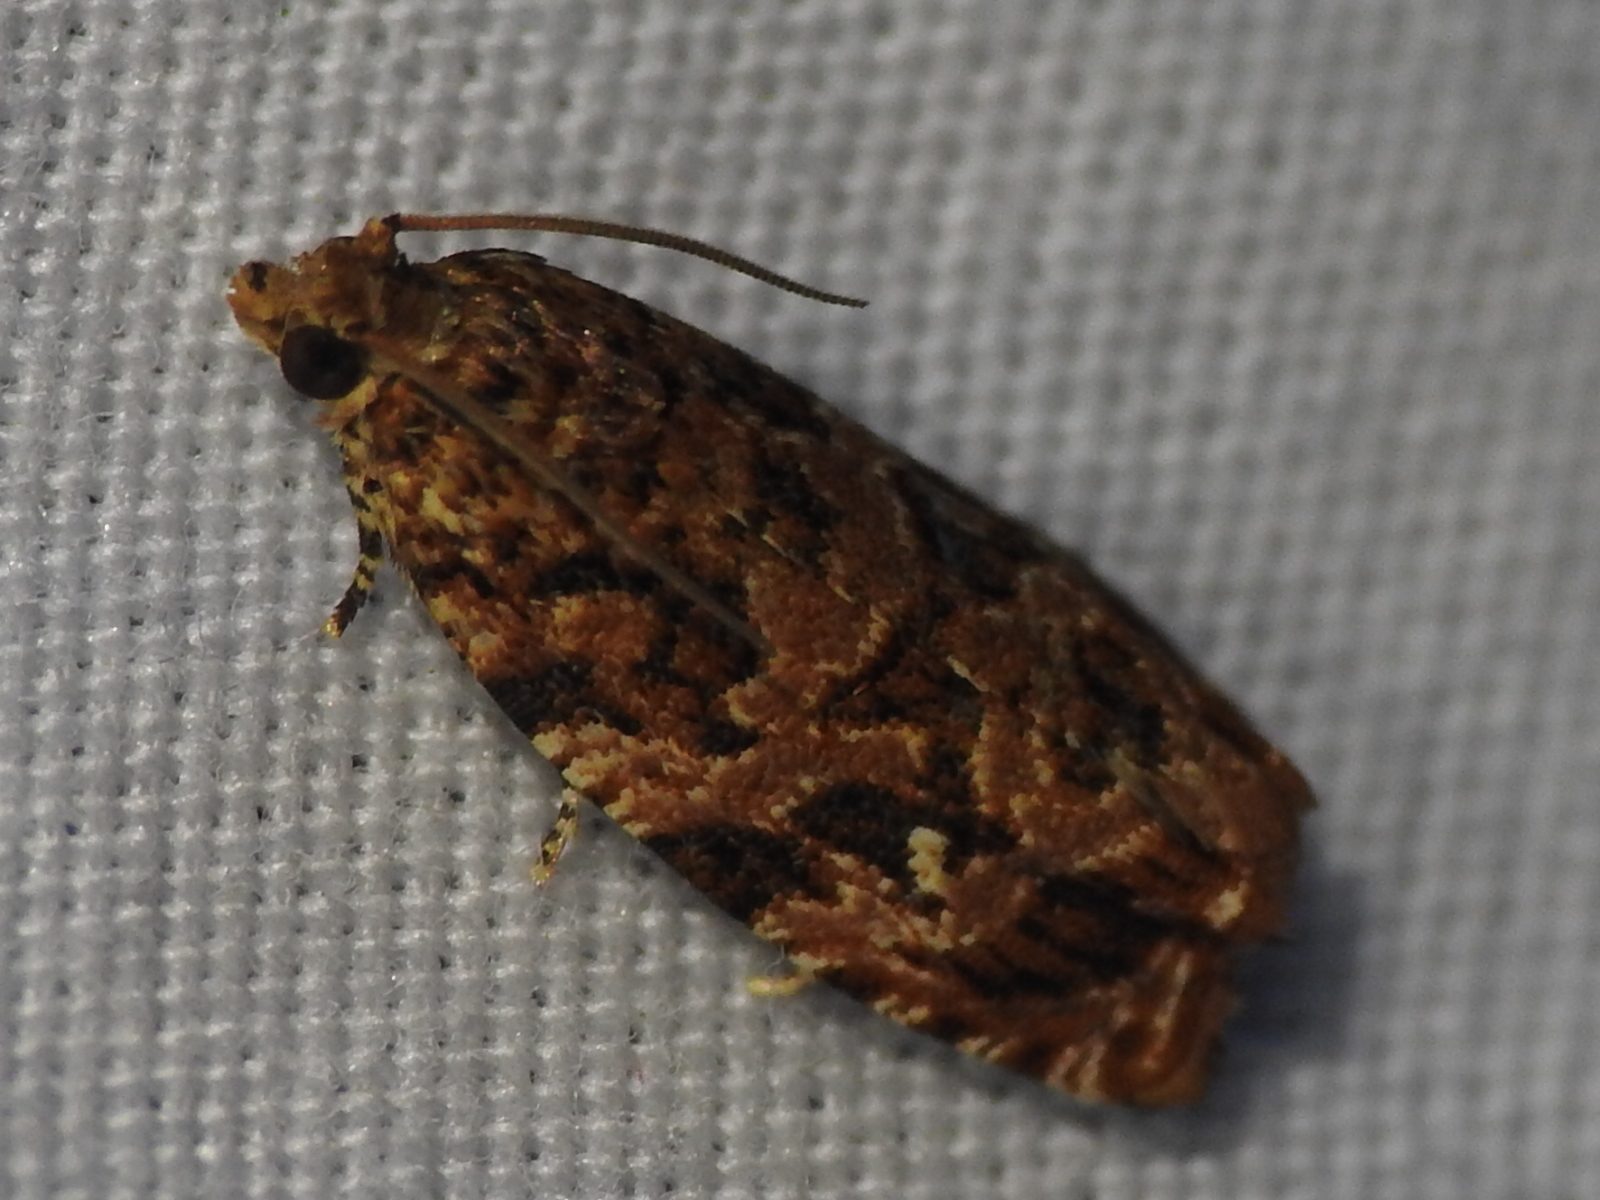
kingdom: Animalia
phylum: Arthropoda
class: Insecta
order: Lepidoptera
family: Tortricidae
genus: Phaecasiophora
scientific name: Phaecasiophora niveiguttana
